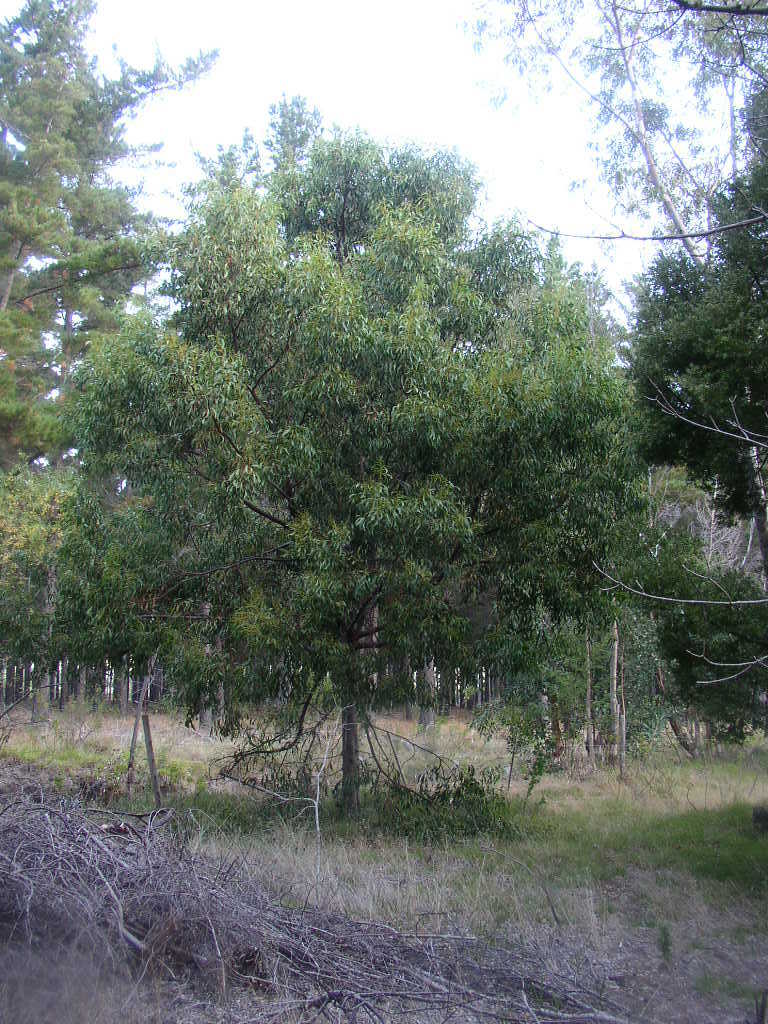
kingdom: Plantae
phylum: Tracheophyta
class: Magnoliopsida
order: Fabales
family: Fabaceae
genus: Acacia
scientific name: Acacia pycnantha
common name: Golden wattle
